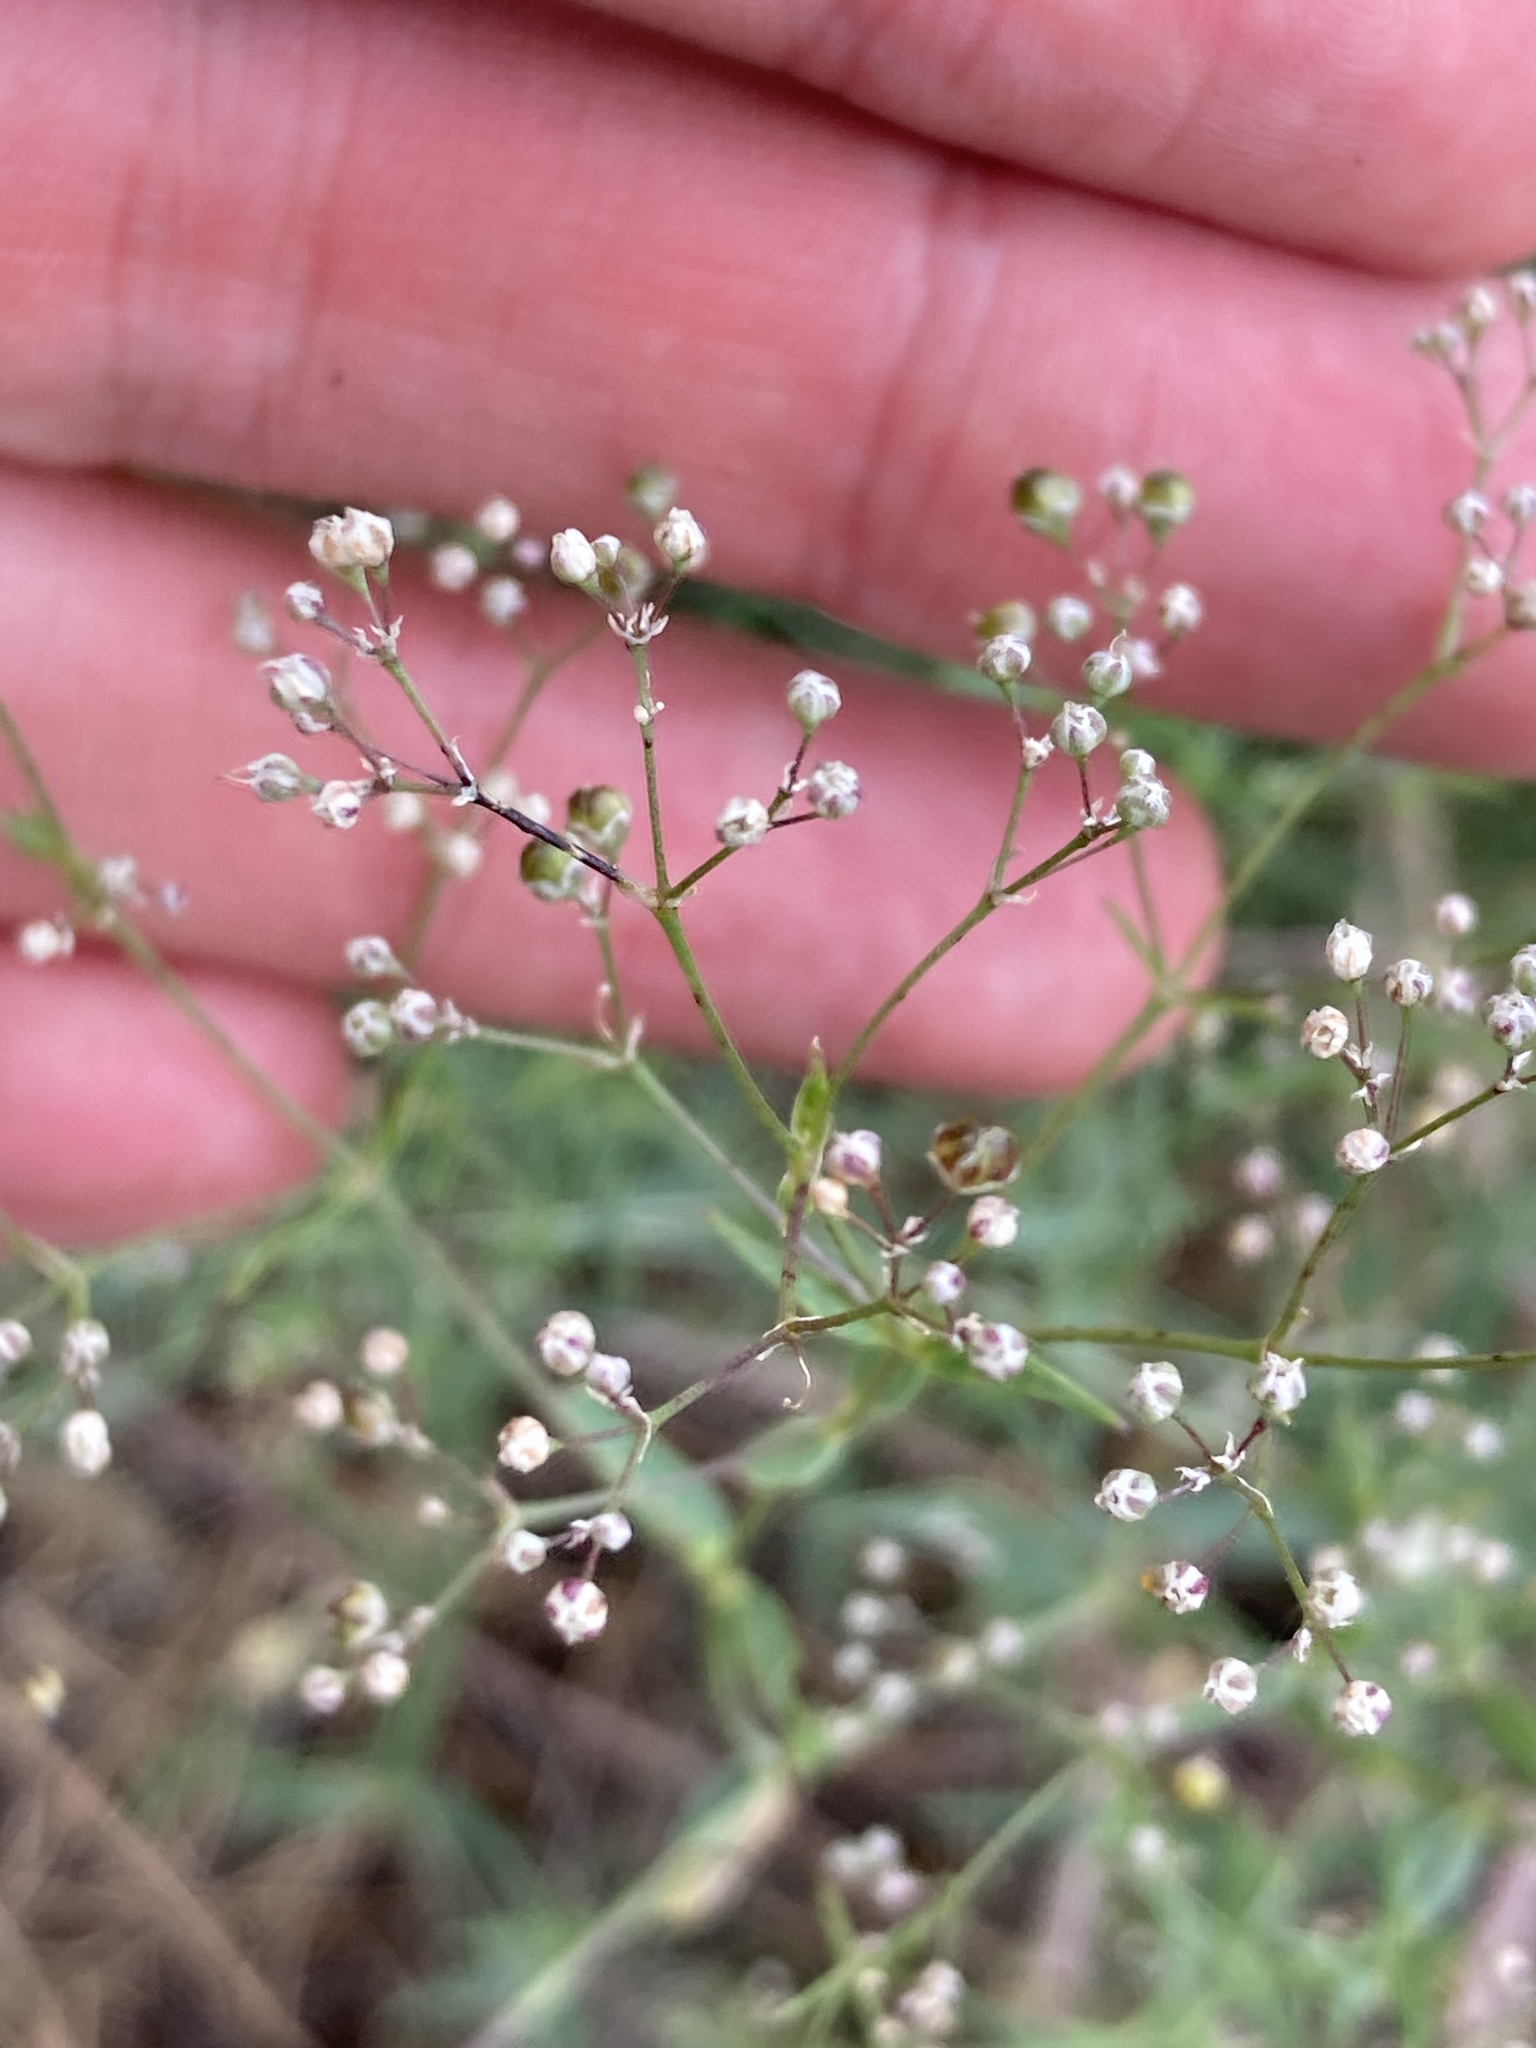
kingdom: Plantae
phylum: Tracheophyta
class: Magnoliopsida
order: Caryophyllales
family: Caryophyllaceae
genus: Gypsophila
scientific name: Gypsophila paniculata
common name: Baby's-breath
